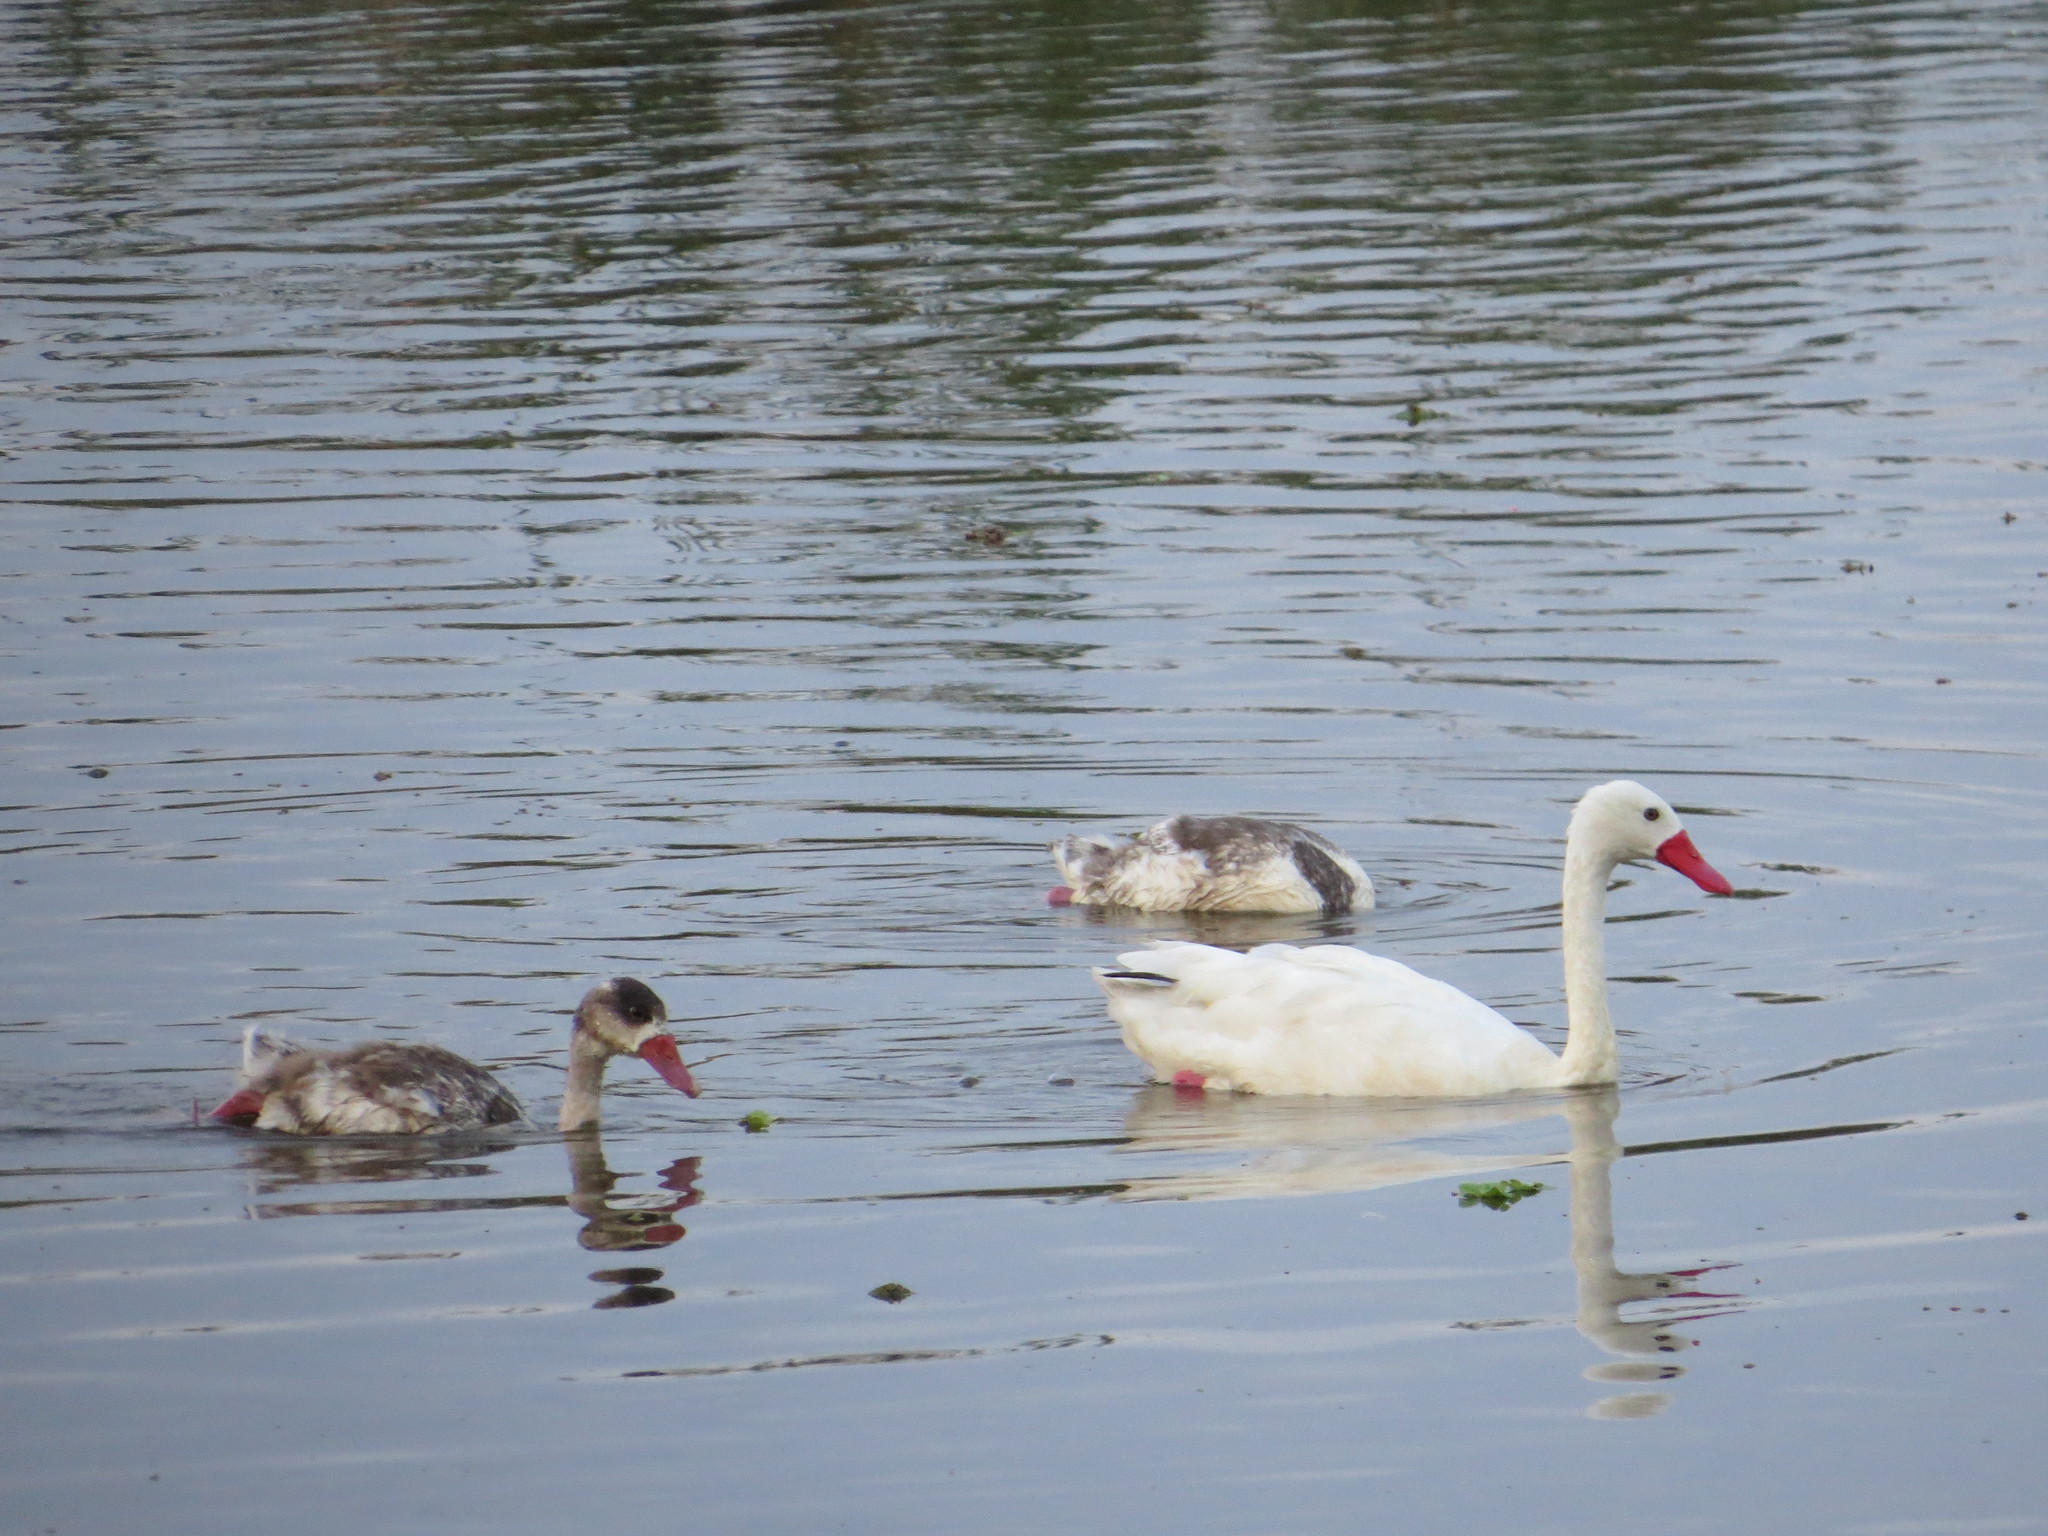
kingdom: Animalia
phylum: Chordata
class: Aves
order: Anseriformes
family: Anatidae
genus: Coscoroba
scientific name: Coscoroba coscoroba
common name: Coscoroba swan
